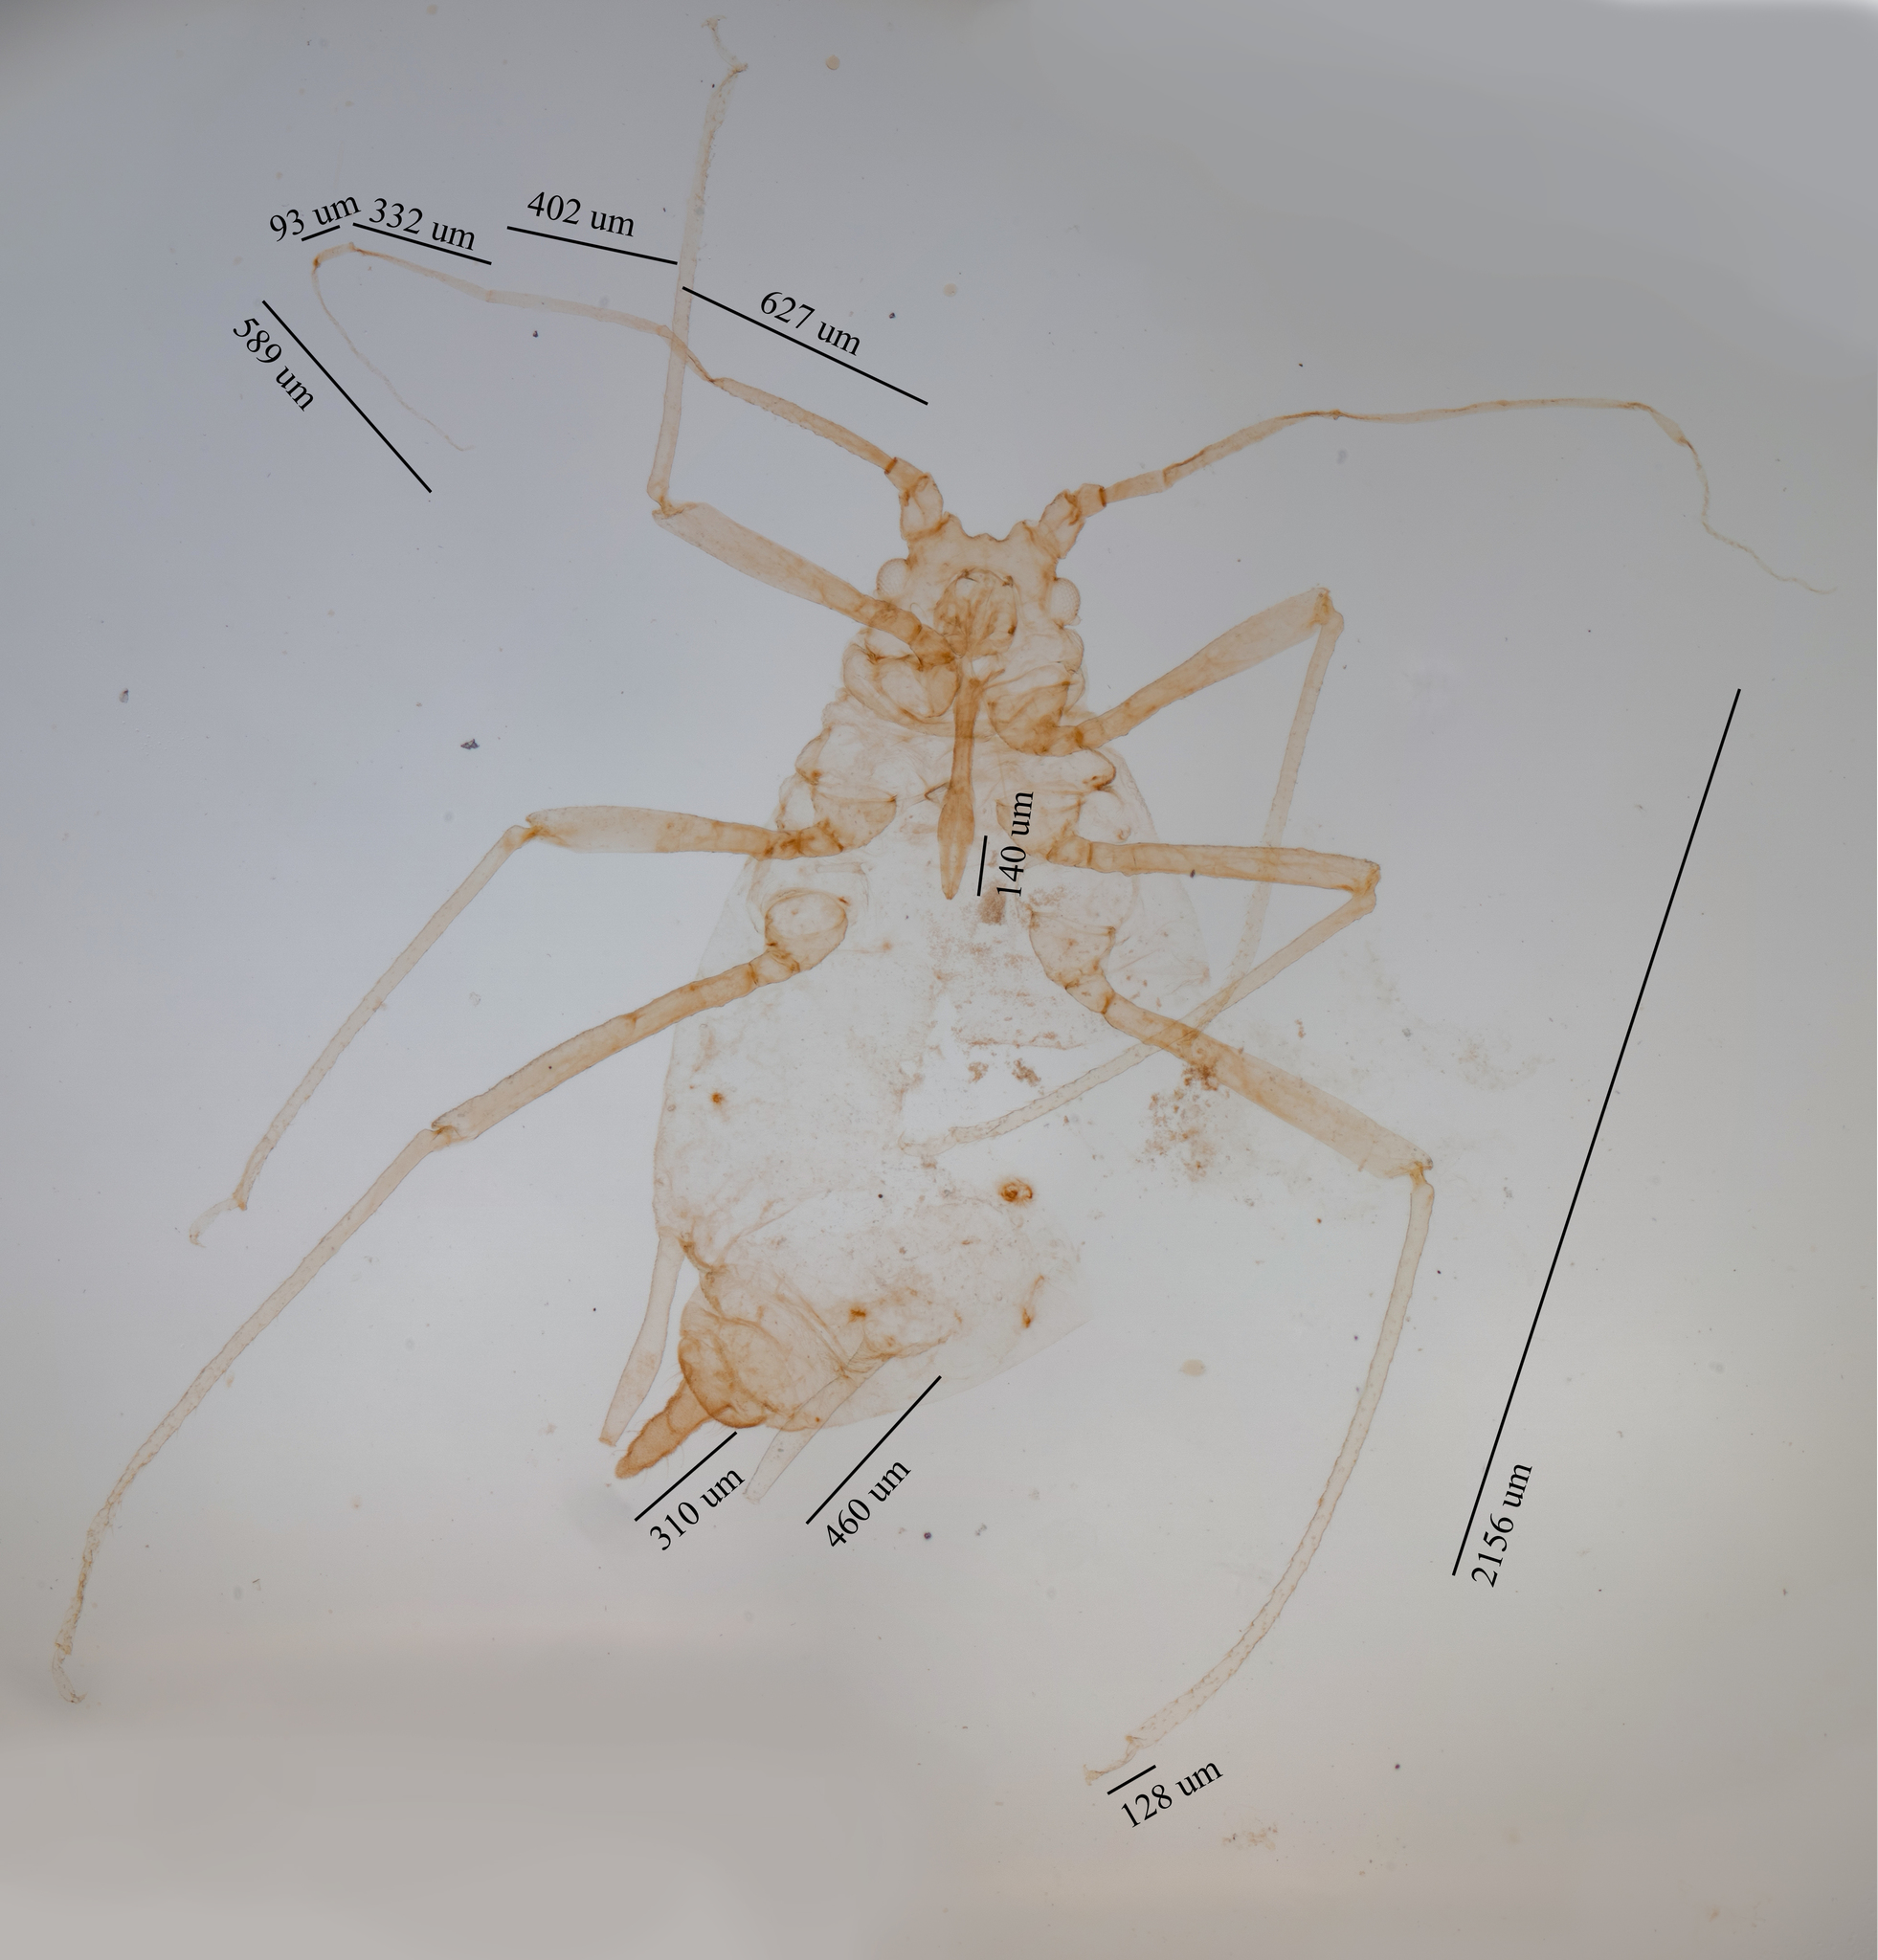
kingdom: Animalia
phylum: Arthropoda
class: Insecta
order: Hemiptera
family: Aphididae
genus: Hyperomyzus
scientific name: Hyperomyzus lactucae
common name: Sow thistle aphid
